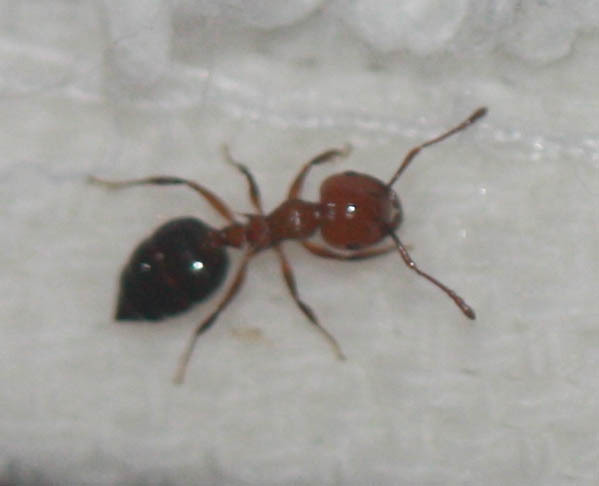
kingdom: Animalia
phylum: Arthropoda
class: Insecta
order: Hymenoptera
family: Formicidae
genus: Crematogaster
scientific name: Crematogaster laeviuscula
